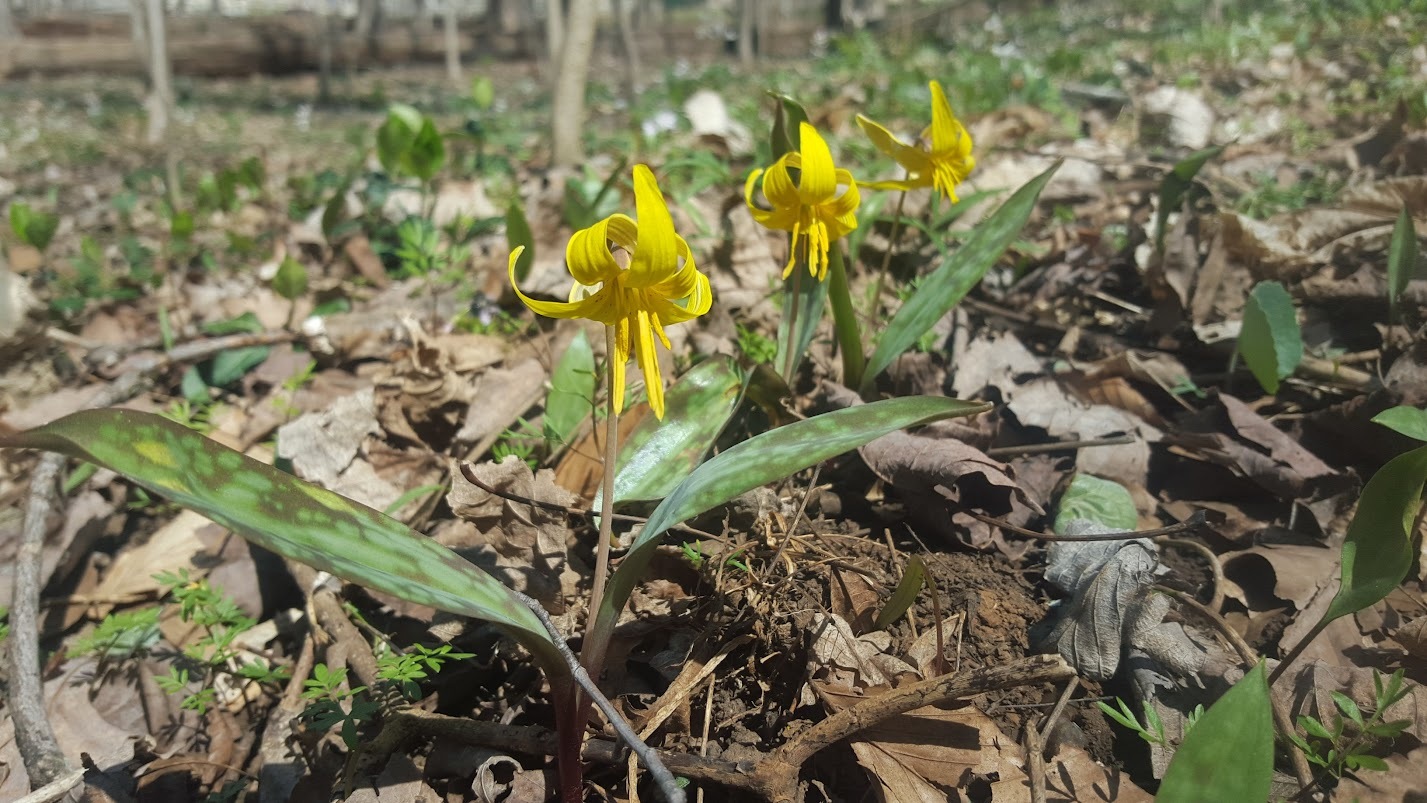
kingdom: Plantae
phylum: Tracheophyta
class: Liliopsida
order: Liliales
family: Liliaceae
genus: Erythronium
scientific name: Erythronium americanum
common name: Yellow adder's-tongue
